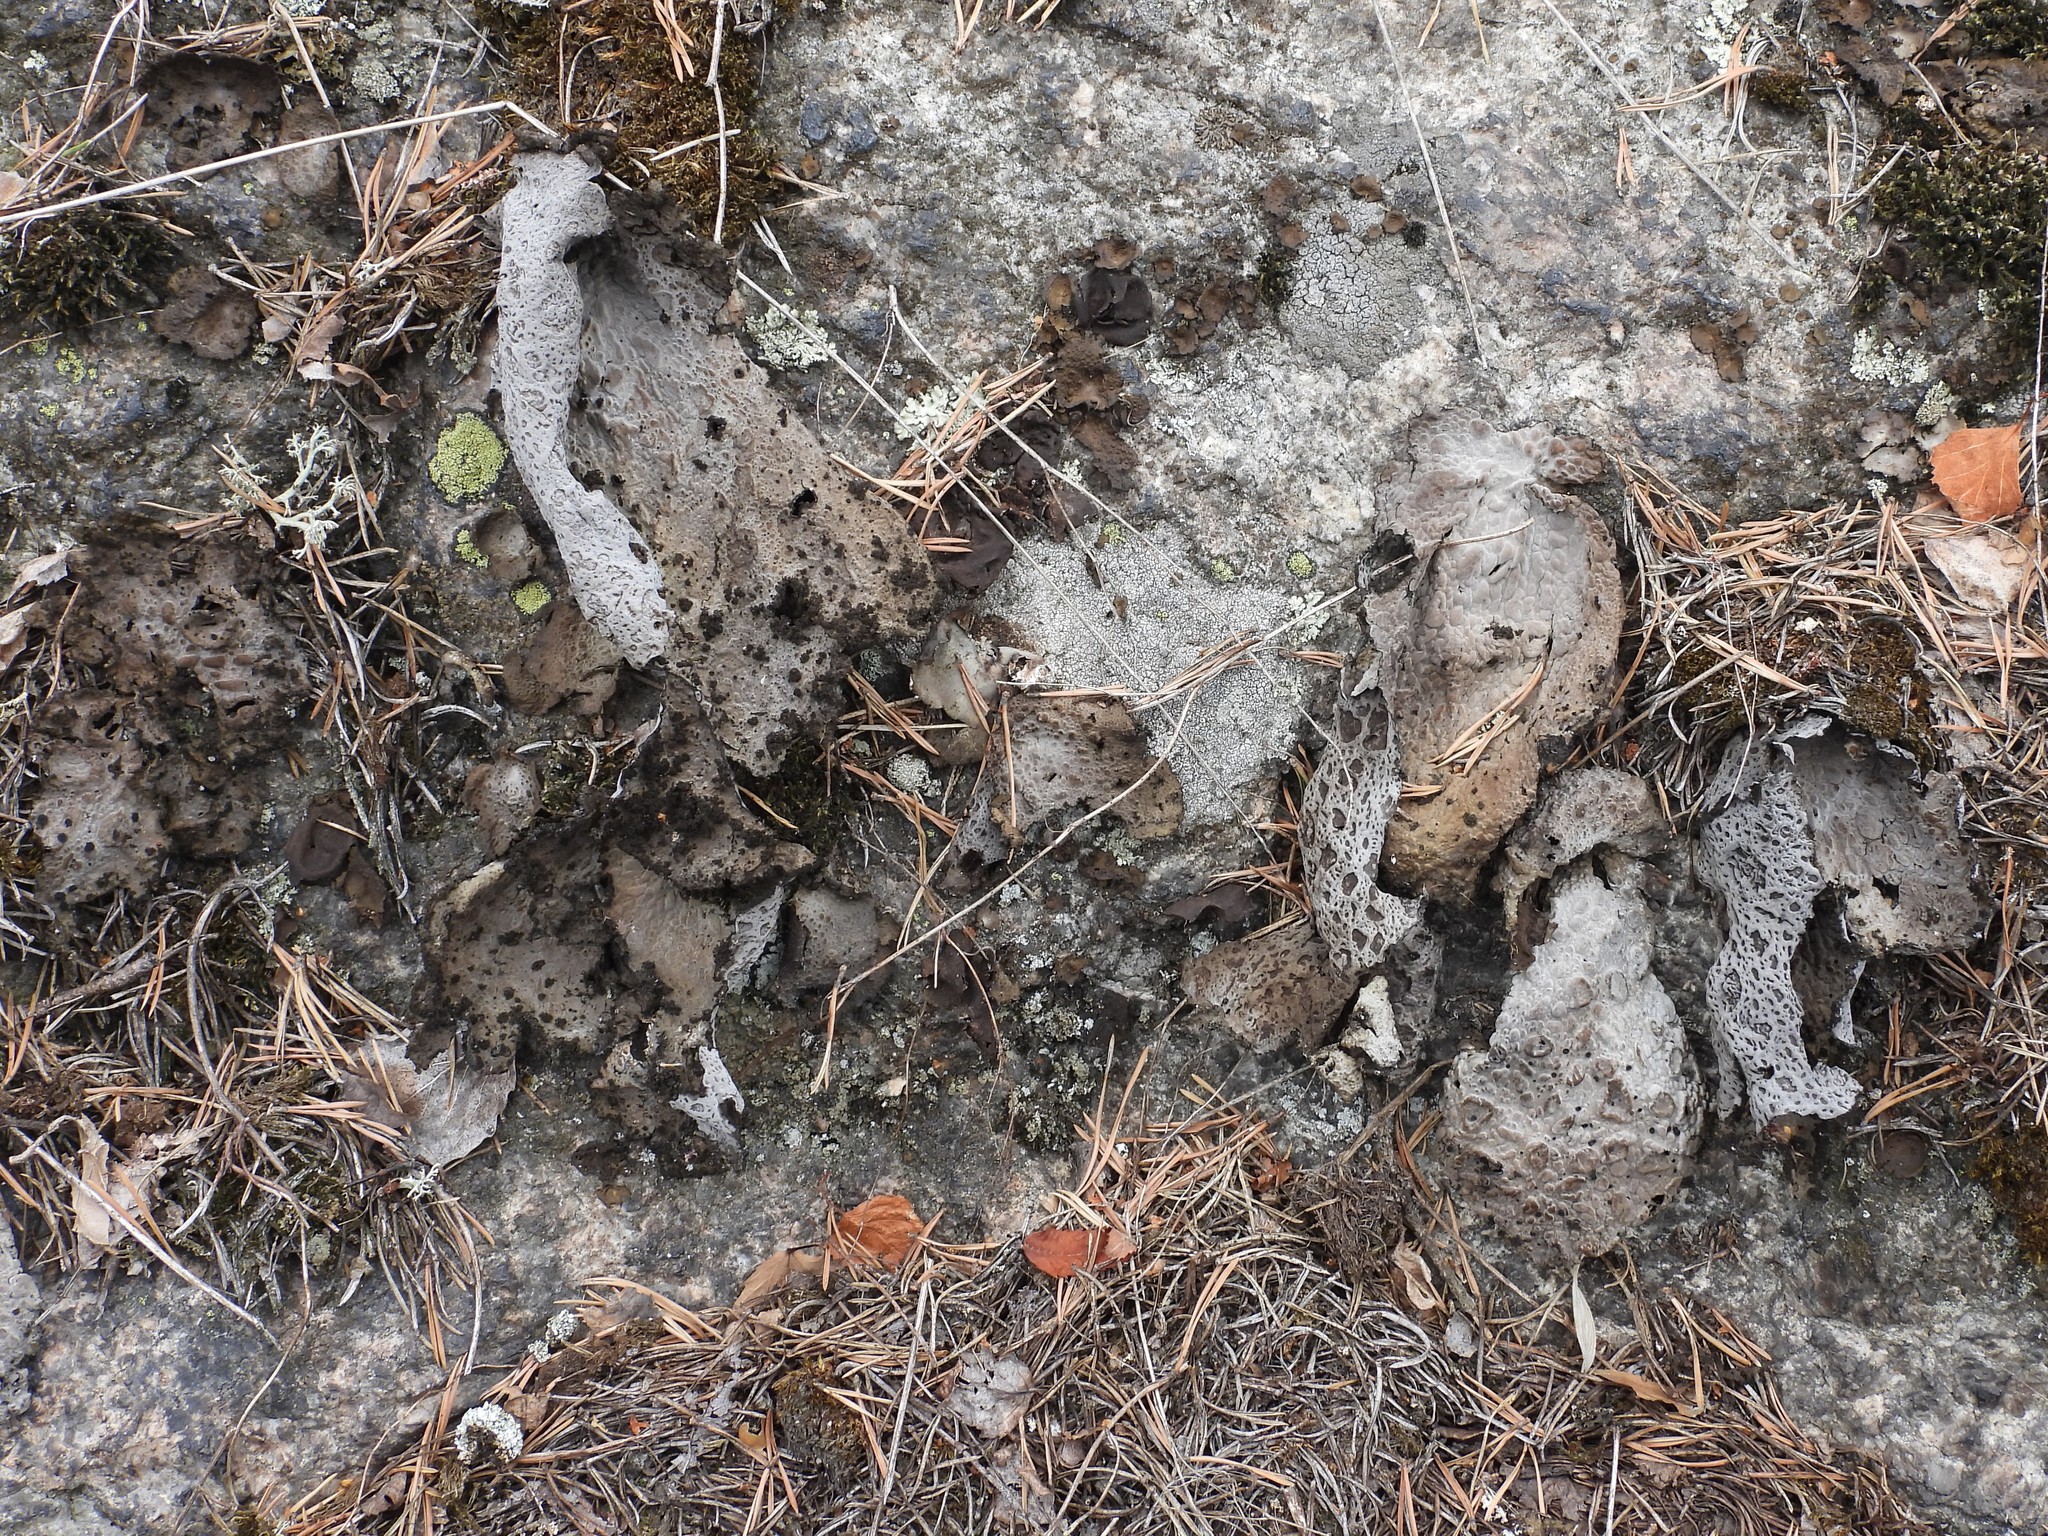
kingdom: Fungi
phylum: Ascomycota
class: Lecanoromycetes
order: Umbilicariales
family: Umbilicariaceae
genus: Lasallia
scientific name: Lasallia pustulata
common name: Blistered toadskin lichen
